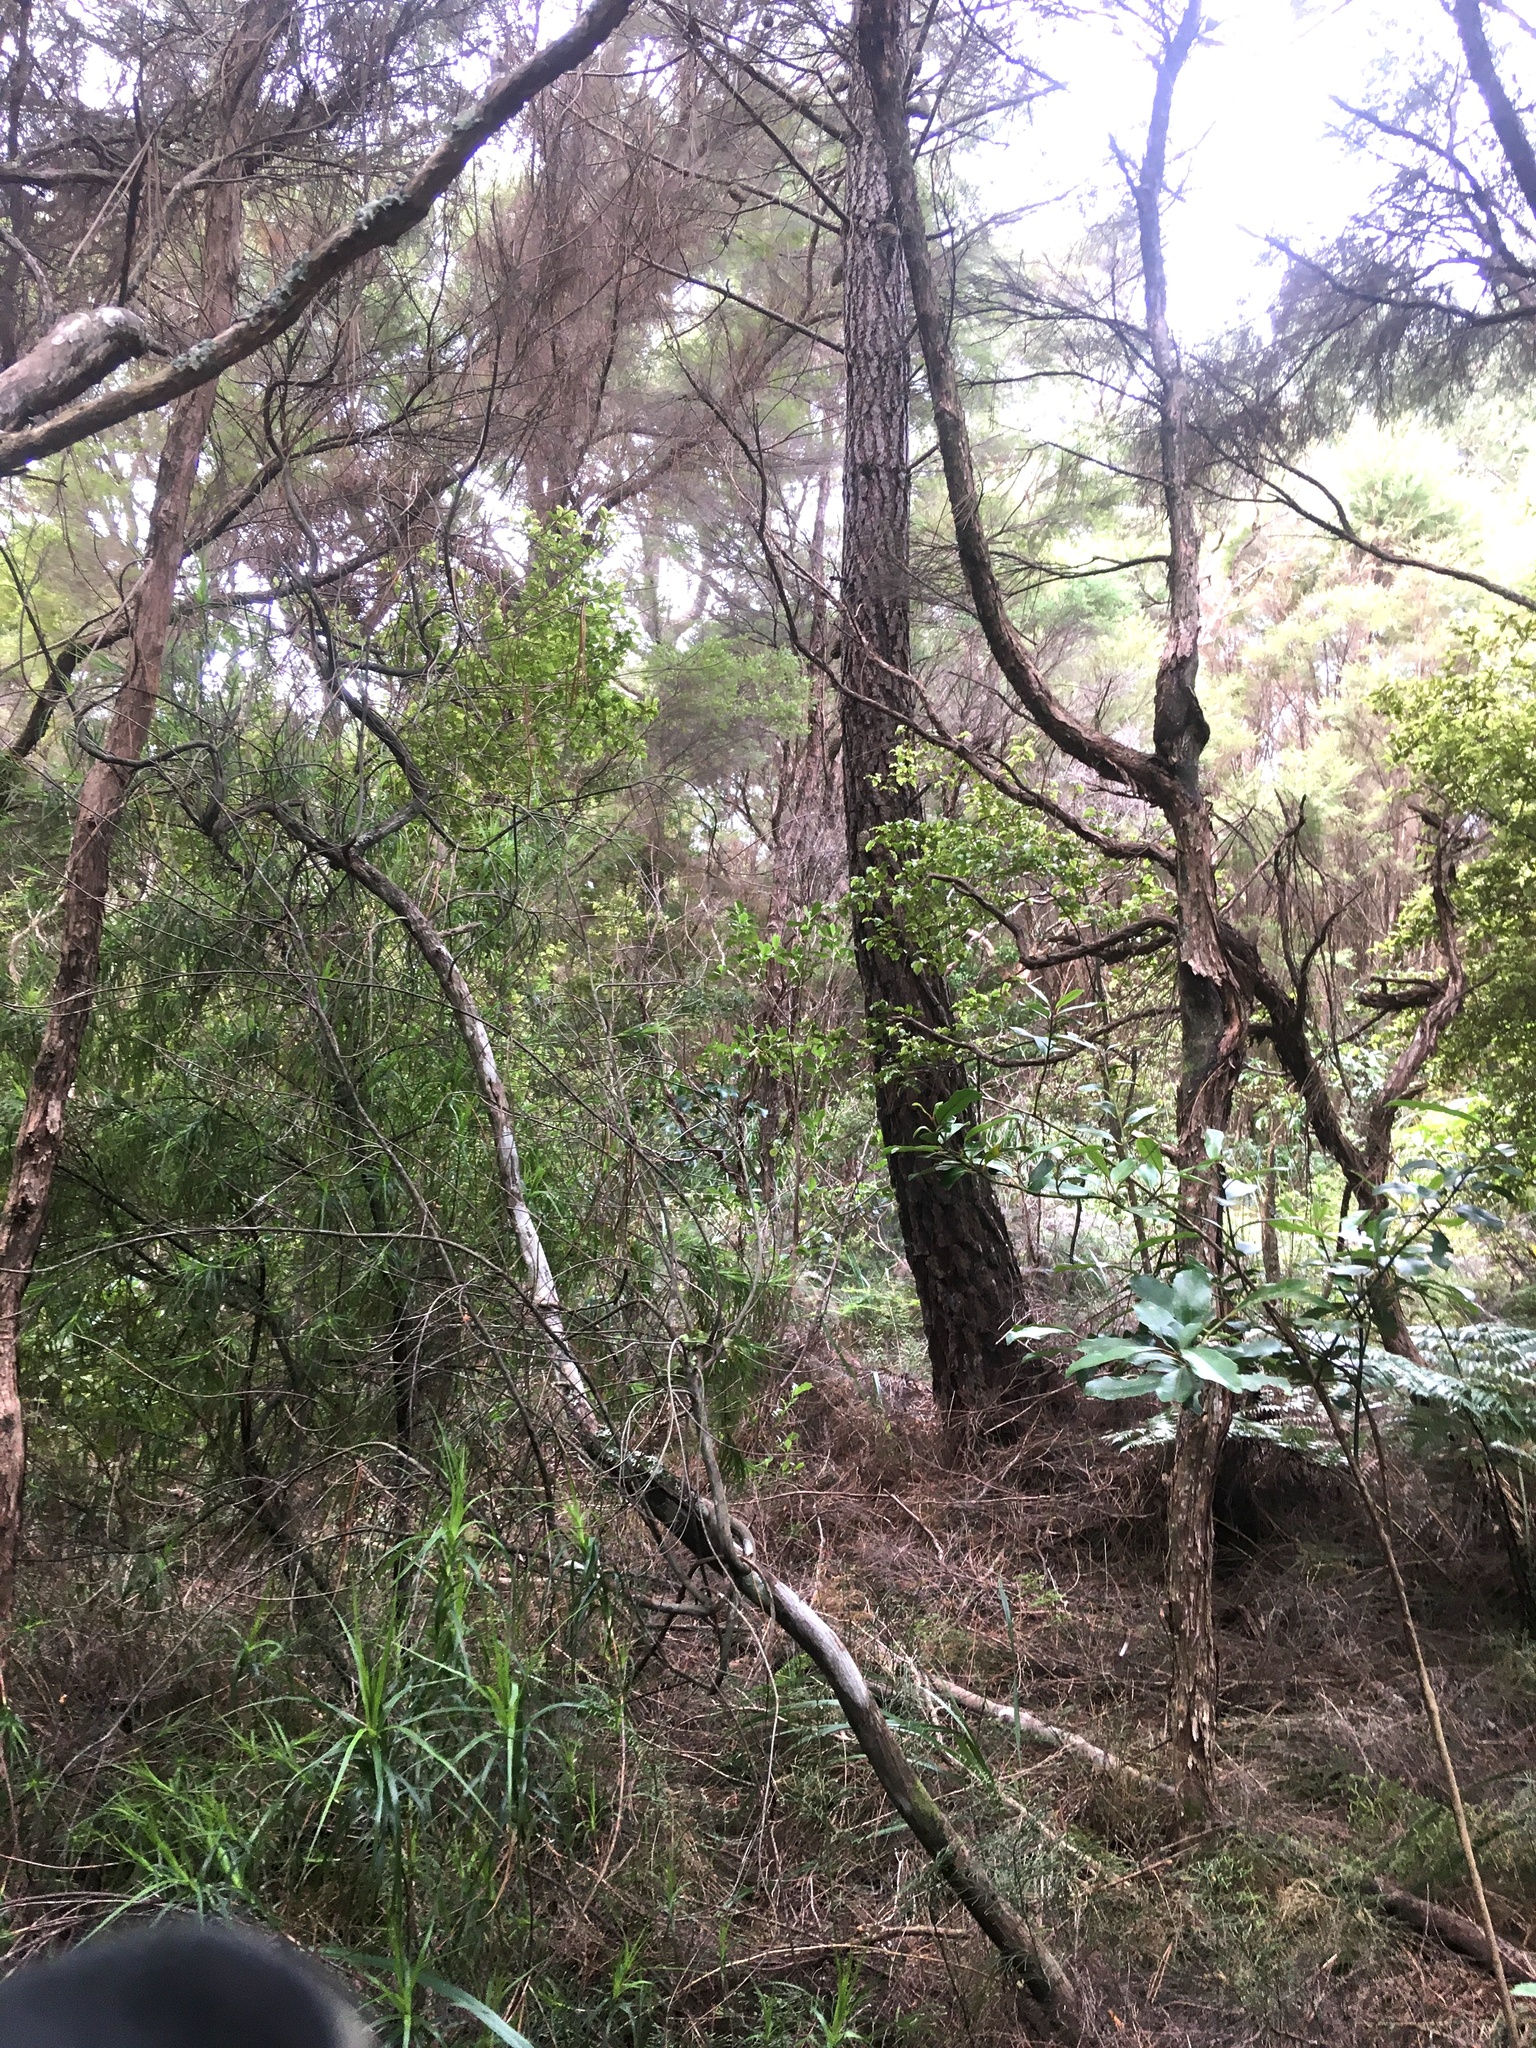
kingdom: Plantae
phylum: Tracheophyta
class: Magnoliopsida
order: Ericales
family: Ericaceae
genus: Dracophyllum
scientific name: Dracophyllum sinclairii
